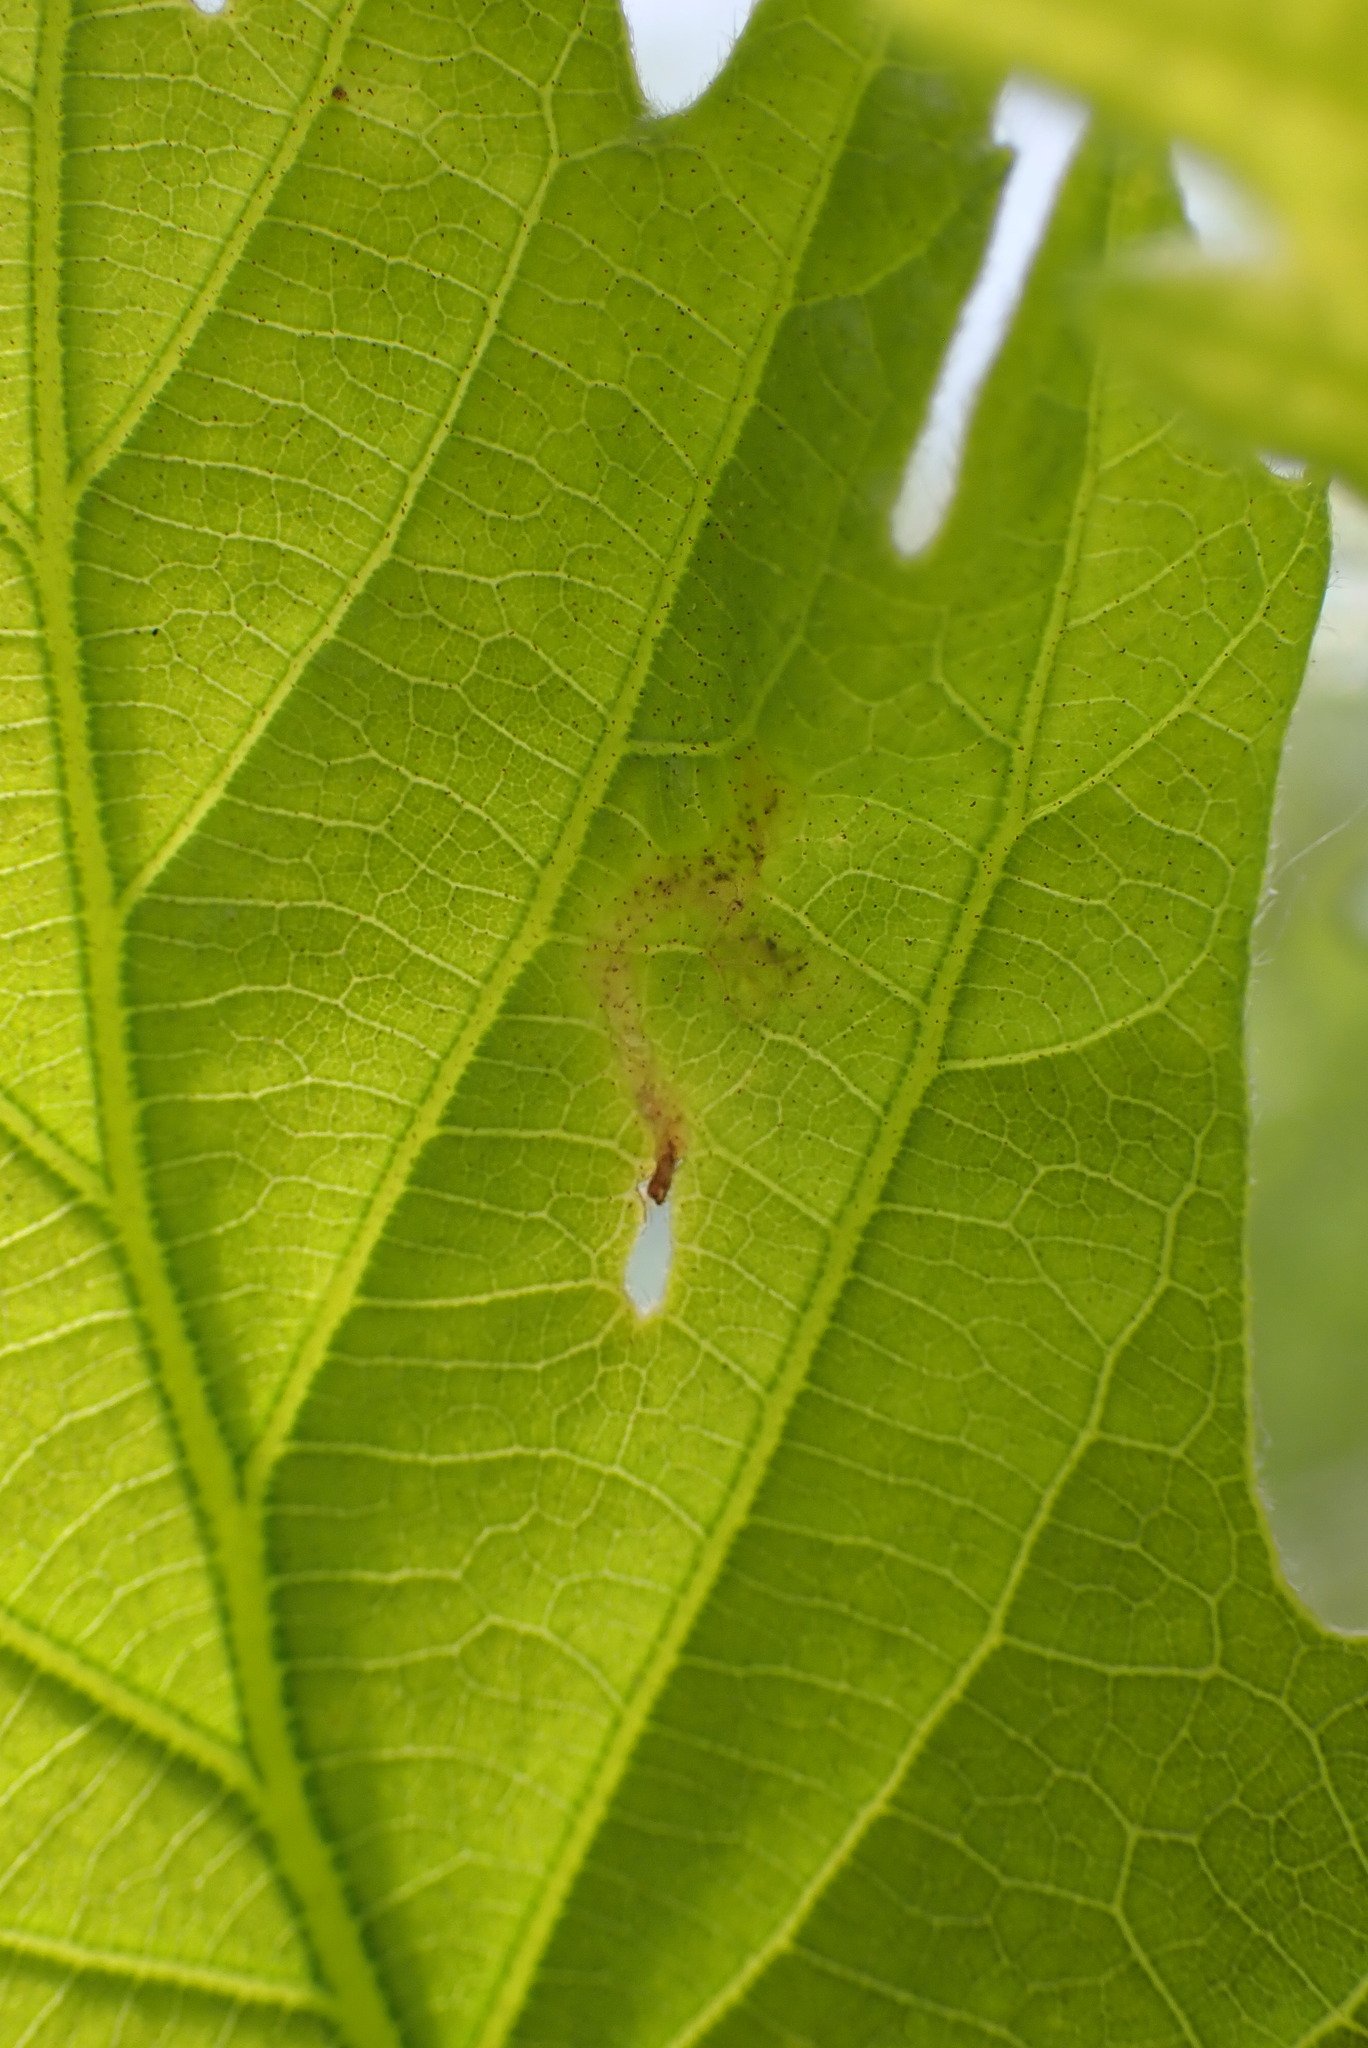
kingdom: Animalia
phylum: Arthropoda
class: Insecta
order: Diptera
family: Agromyzidae
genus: Japanagromyza
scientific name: Japanagromyza viridula
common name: Oak shothole leafminer
